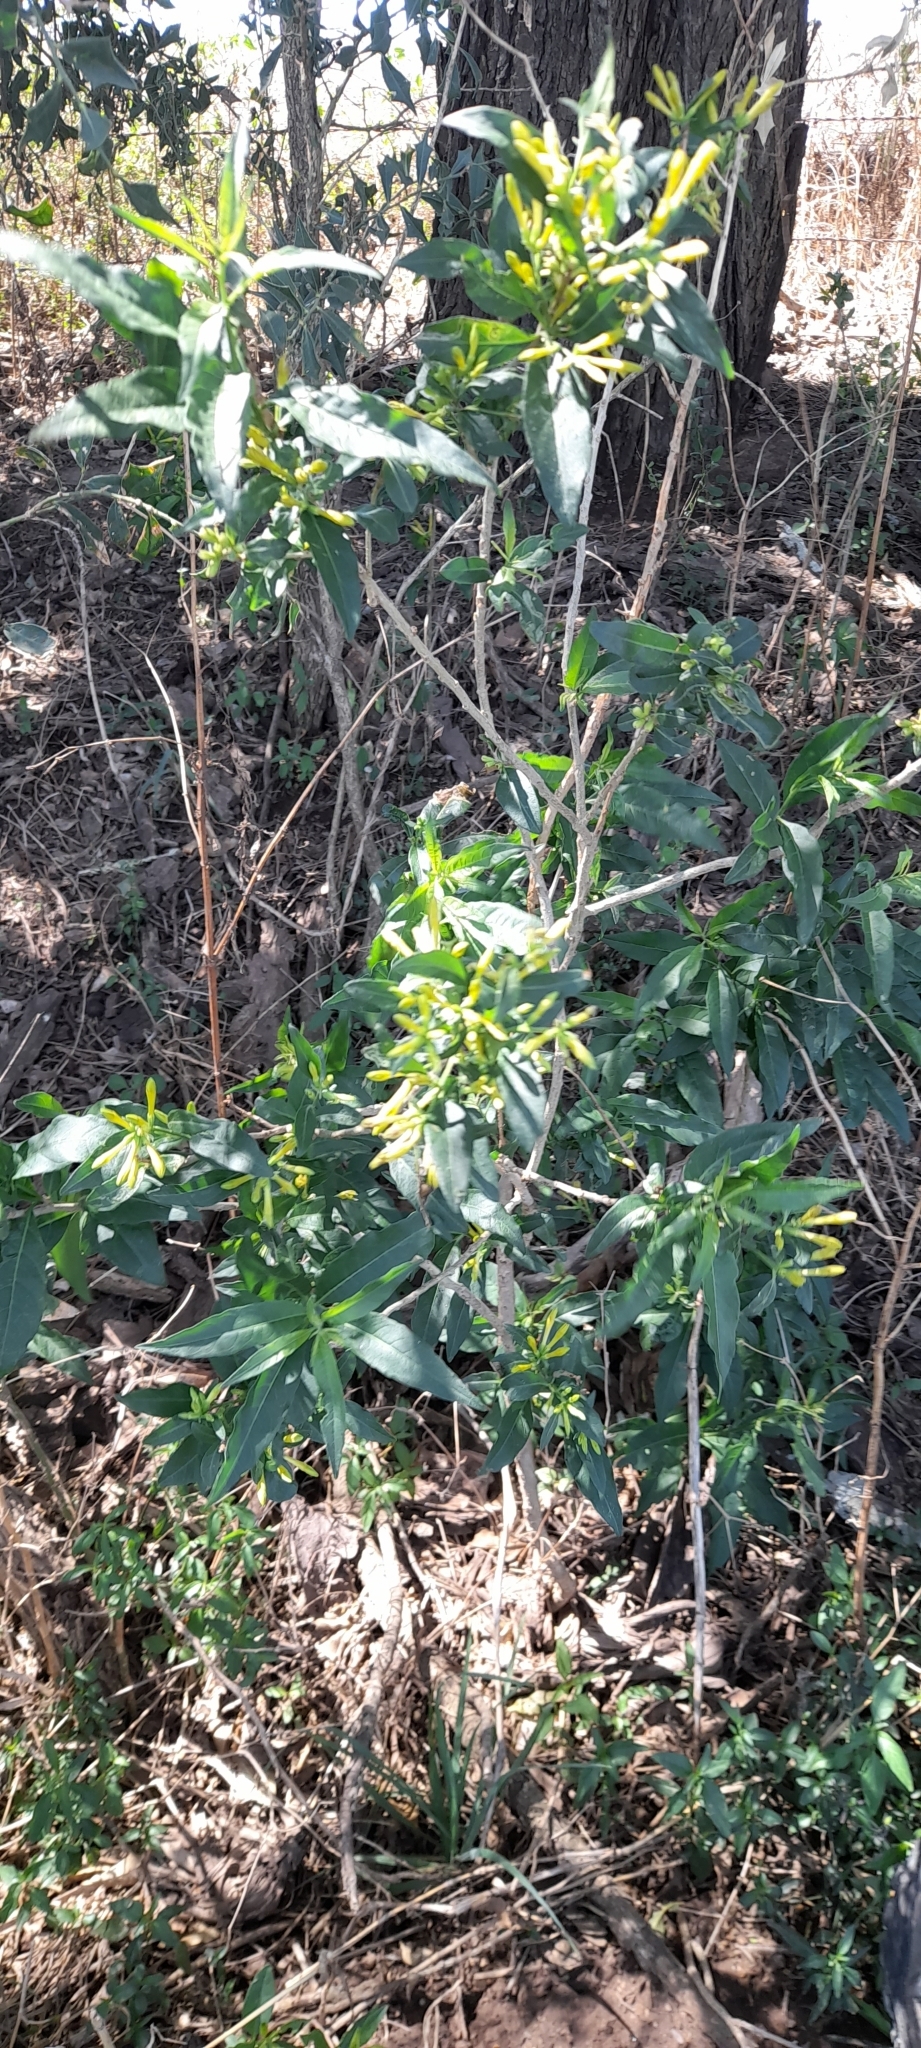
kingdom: Plantae
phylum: Tracheophyta
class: Magnoliopsida
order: Solanales
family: Solanaceae
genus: Cestrum
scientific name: Cestrum parqui
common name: Chilean cestrum
